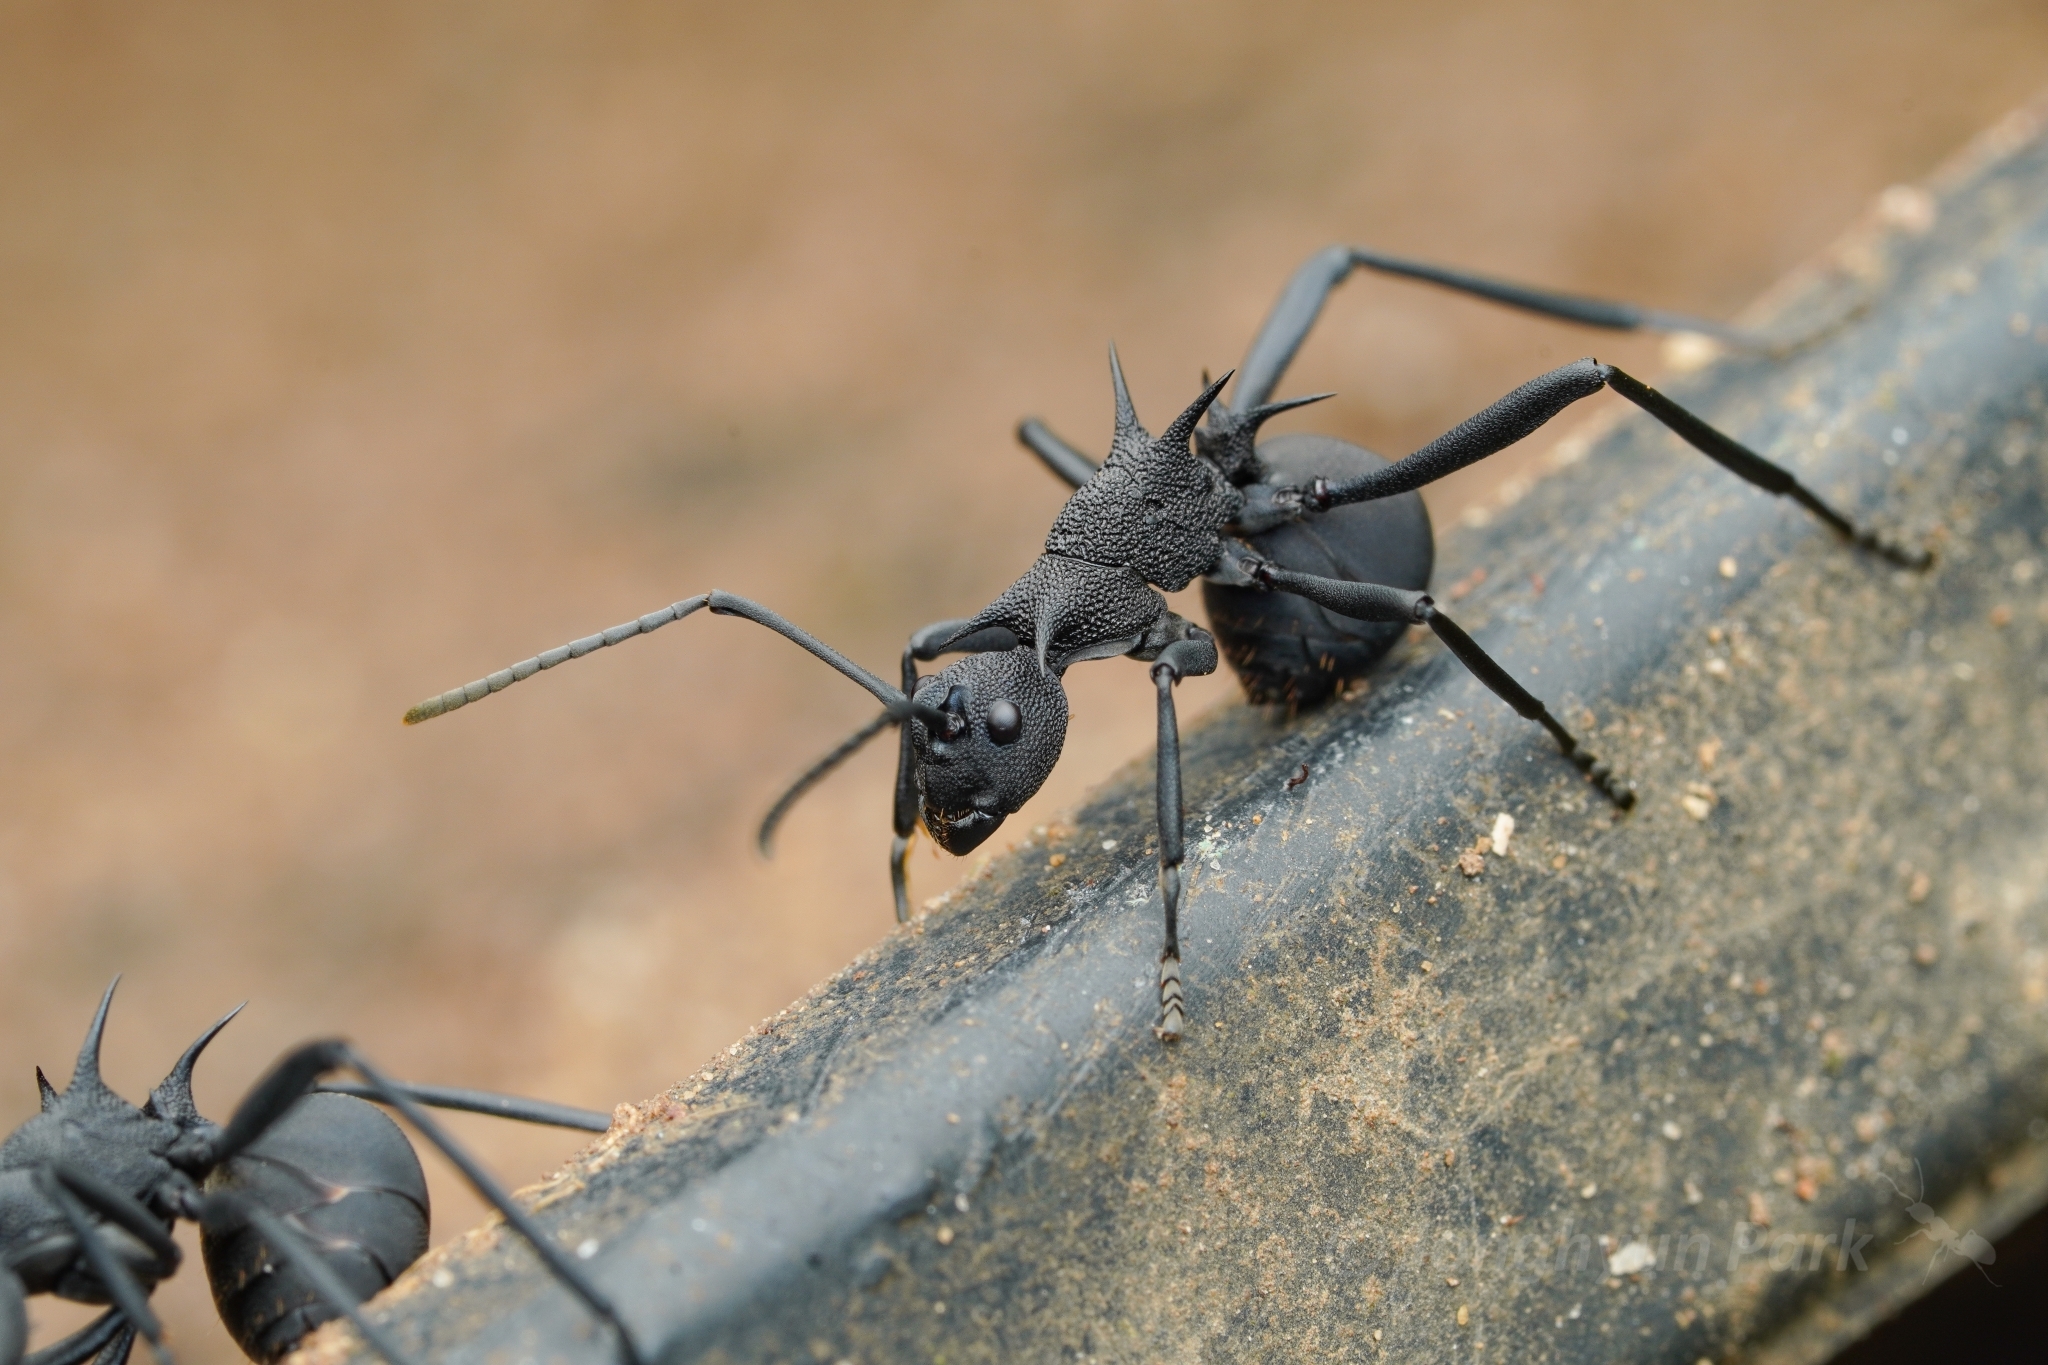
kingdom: Animalia
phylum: Arthropoda
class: Insecta
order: Hymenoptera
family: Formicidae
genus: Polyrhachis
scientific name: Polyrhachis armata
